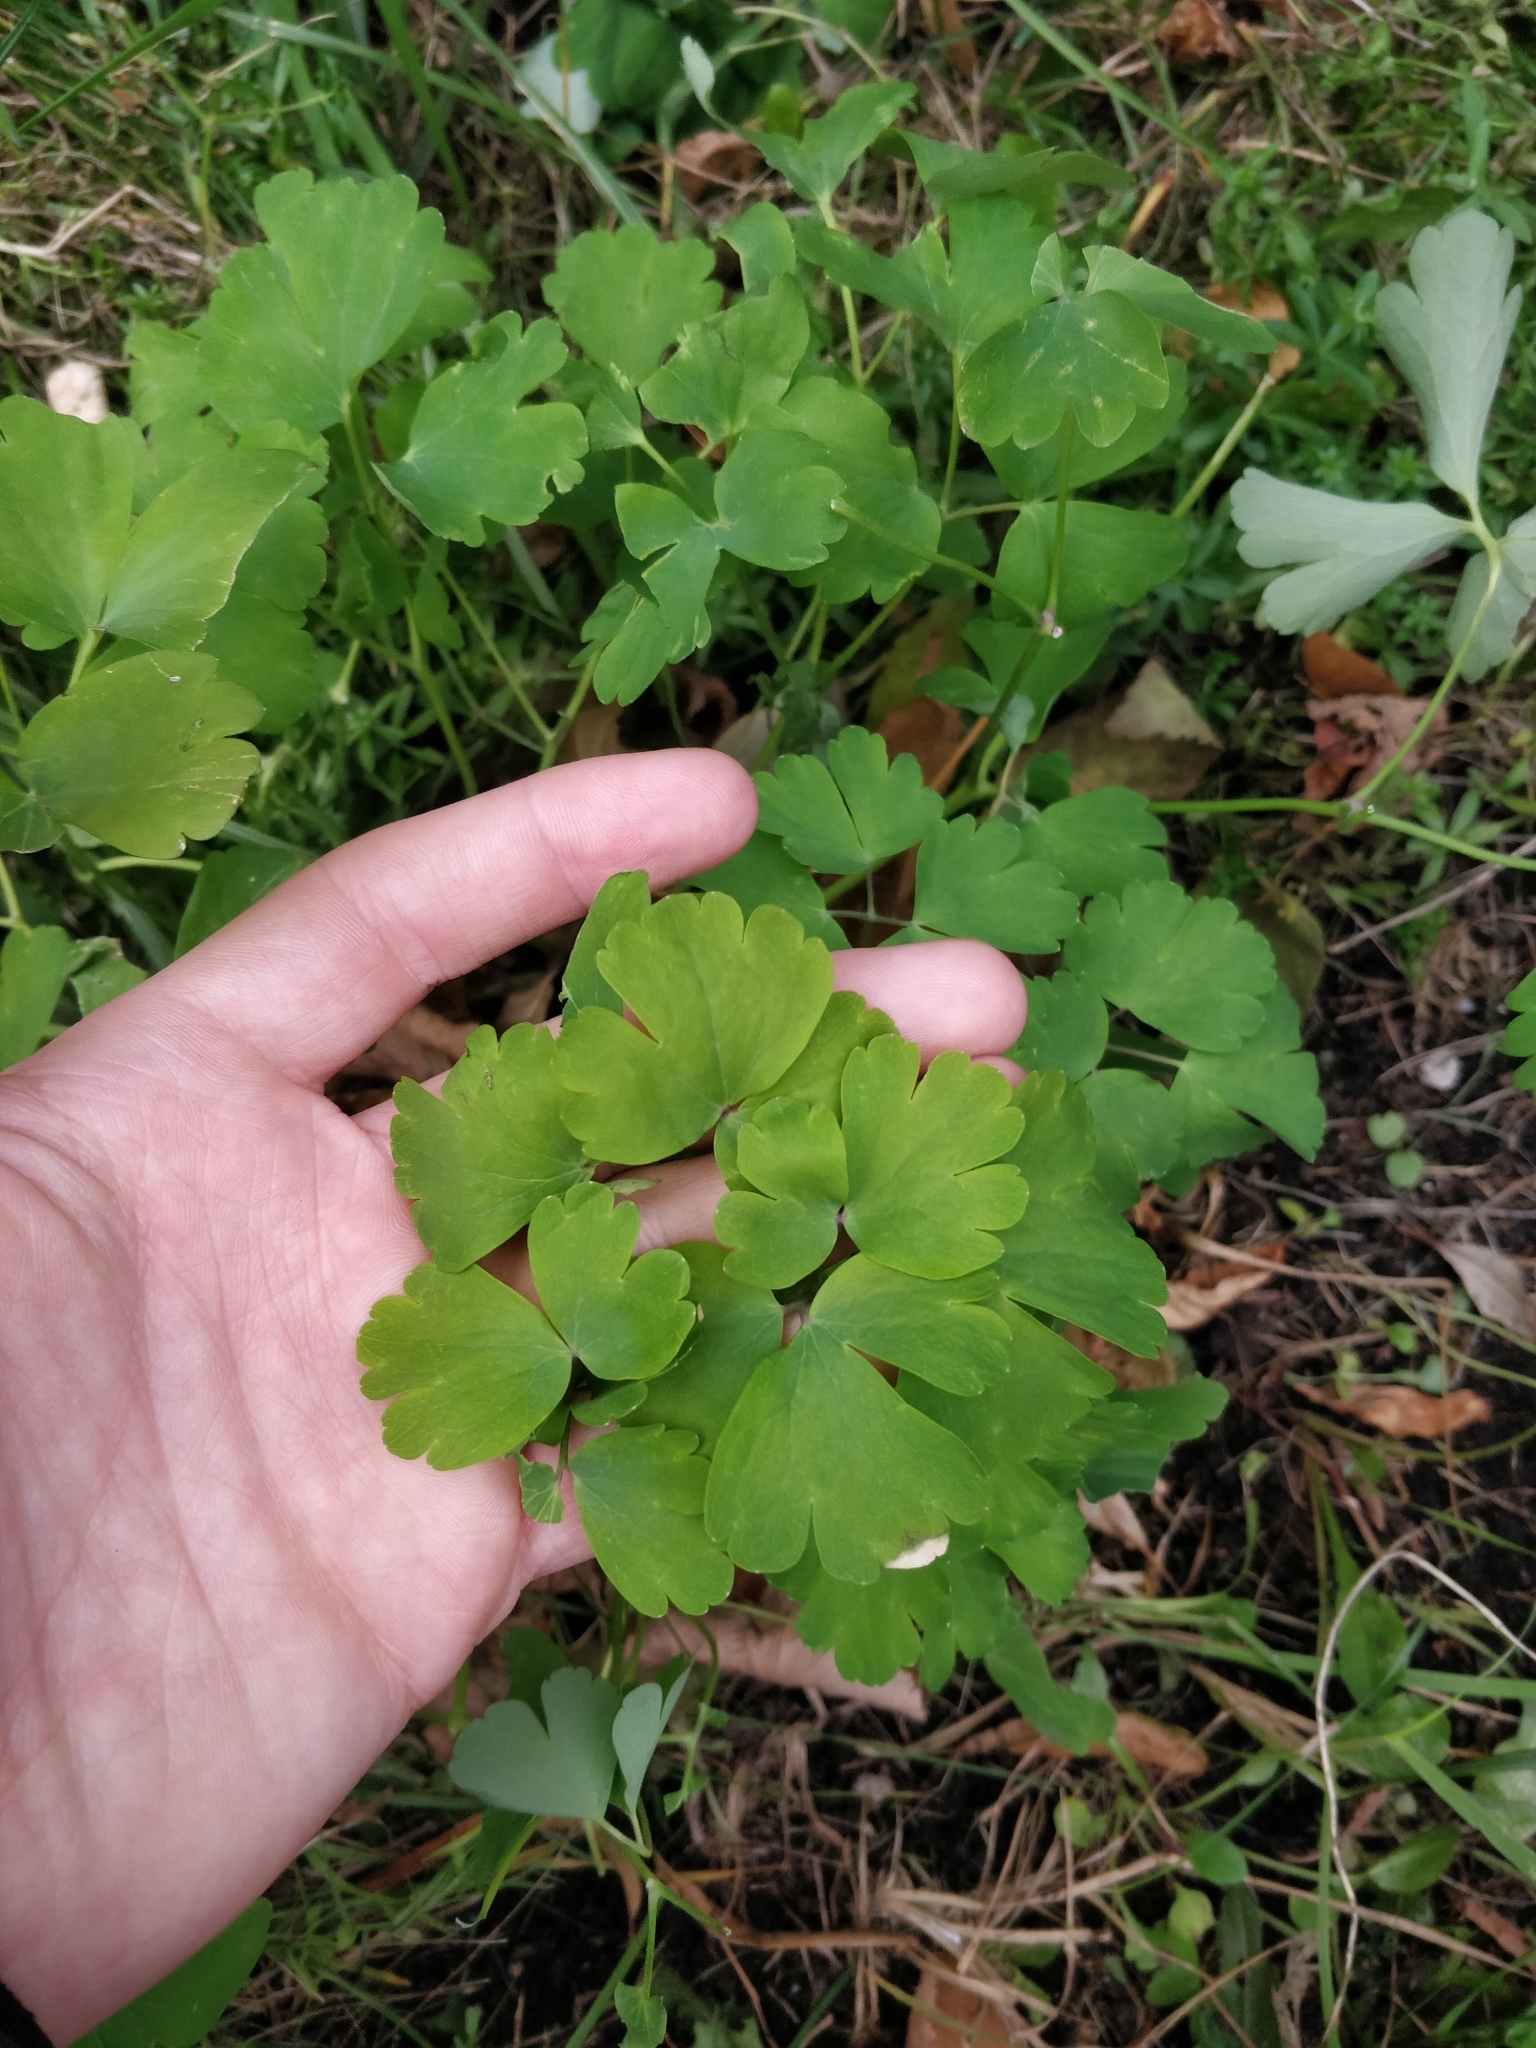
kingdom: Plantae
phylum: Tracheophyta
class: Magnoliopsida
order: Ranunculales
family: Ranunculaceae
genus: Aquilegia
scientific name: Aquilegia vulgaris
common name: Columbine
